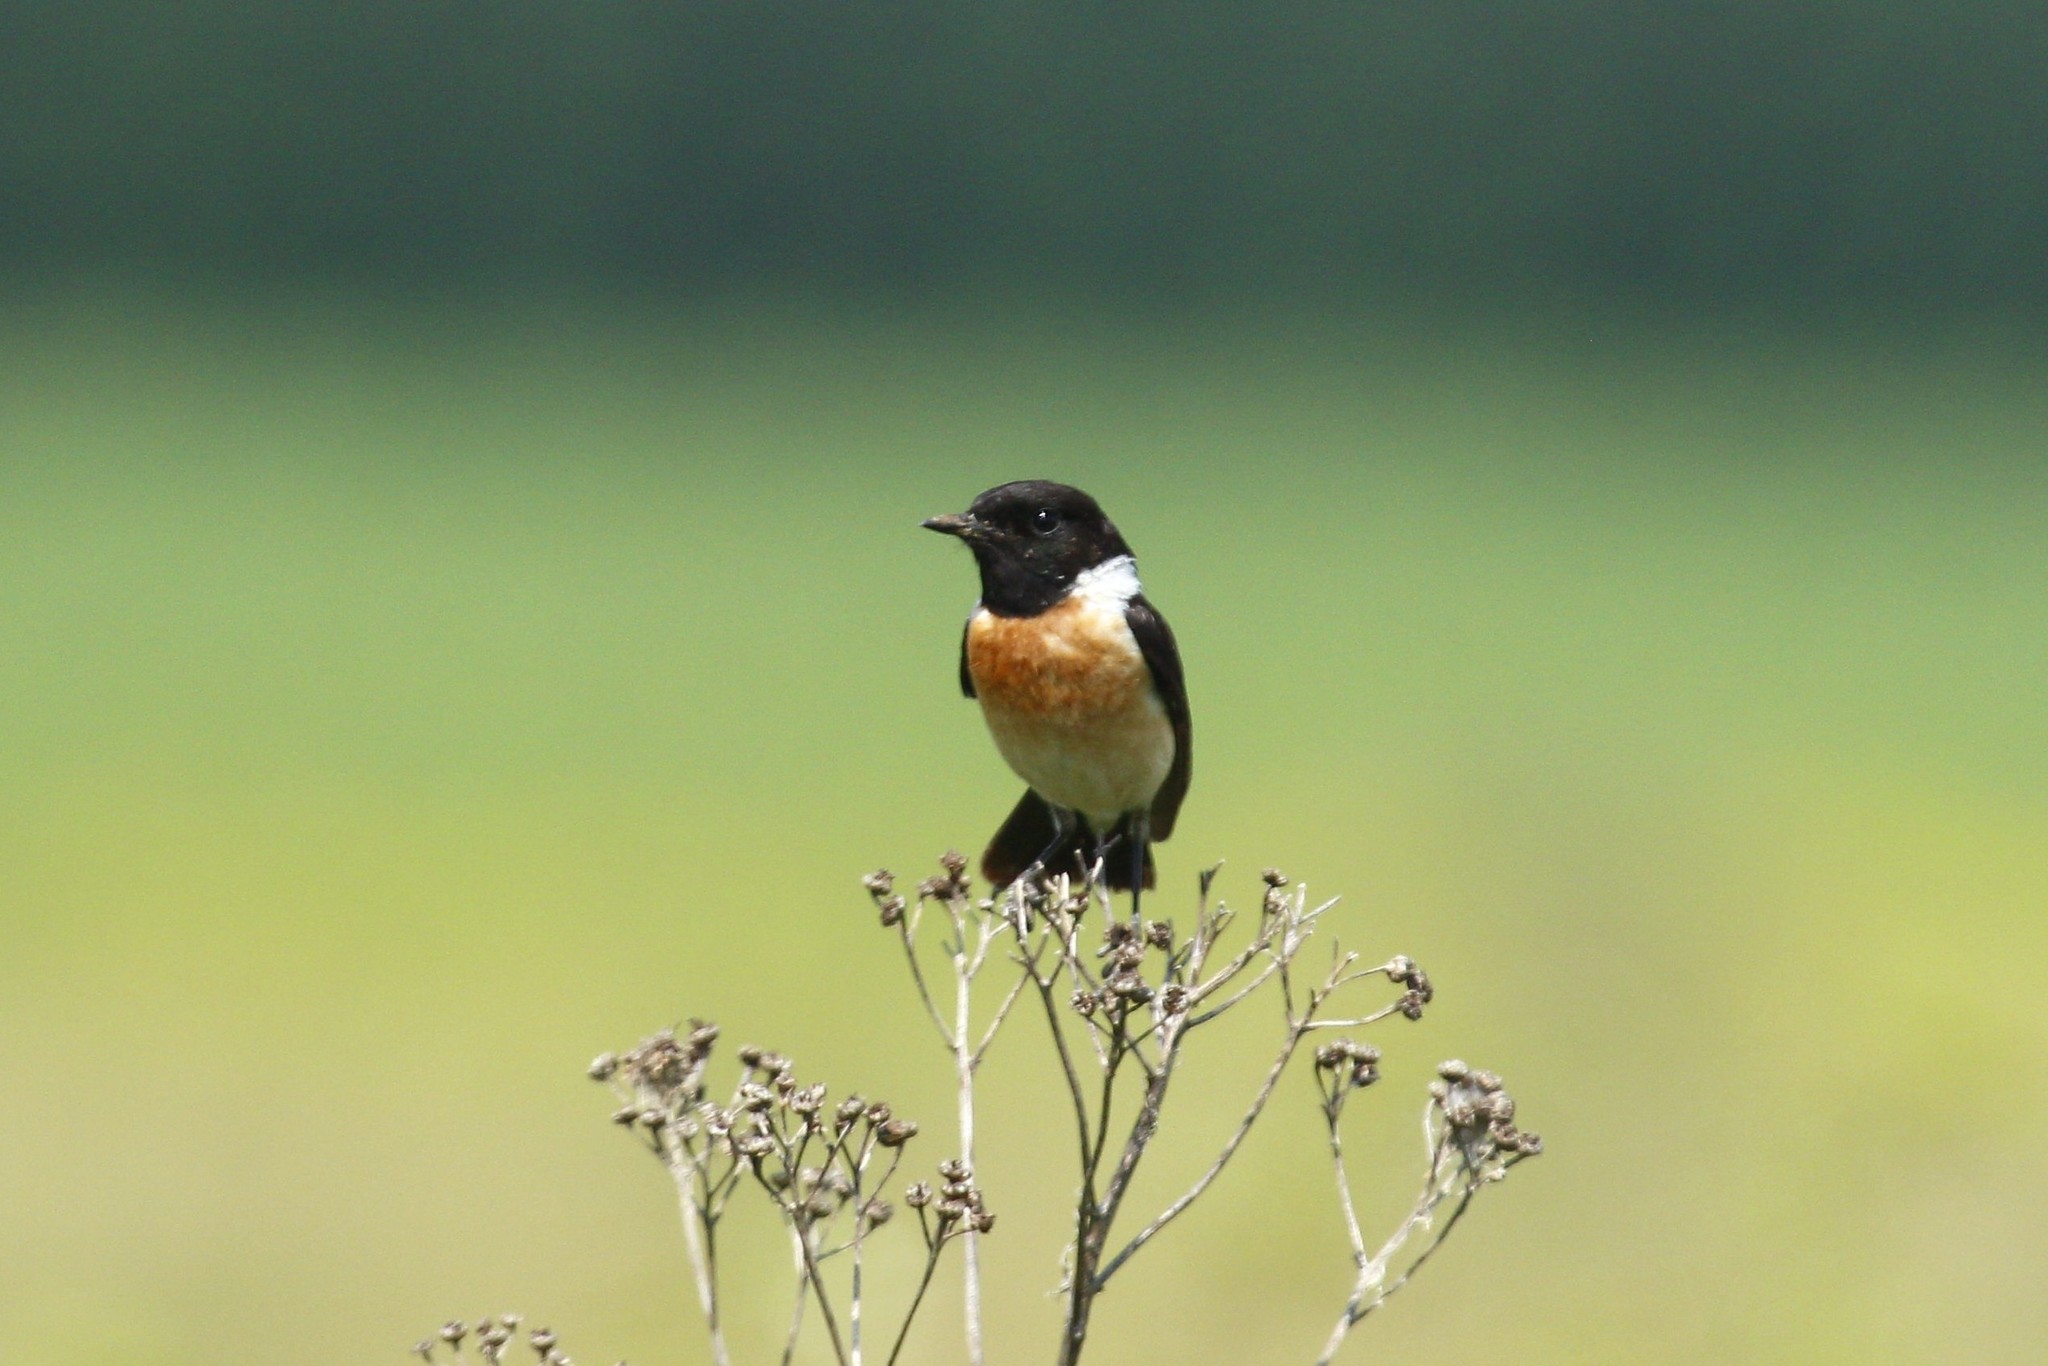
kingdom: Animalia
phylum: Chordata
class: Aves
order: Passeriformes
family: Muscicapidae
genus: Saxicola
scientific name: Saxicola maurus
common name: Siberian stonechat
